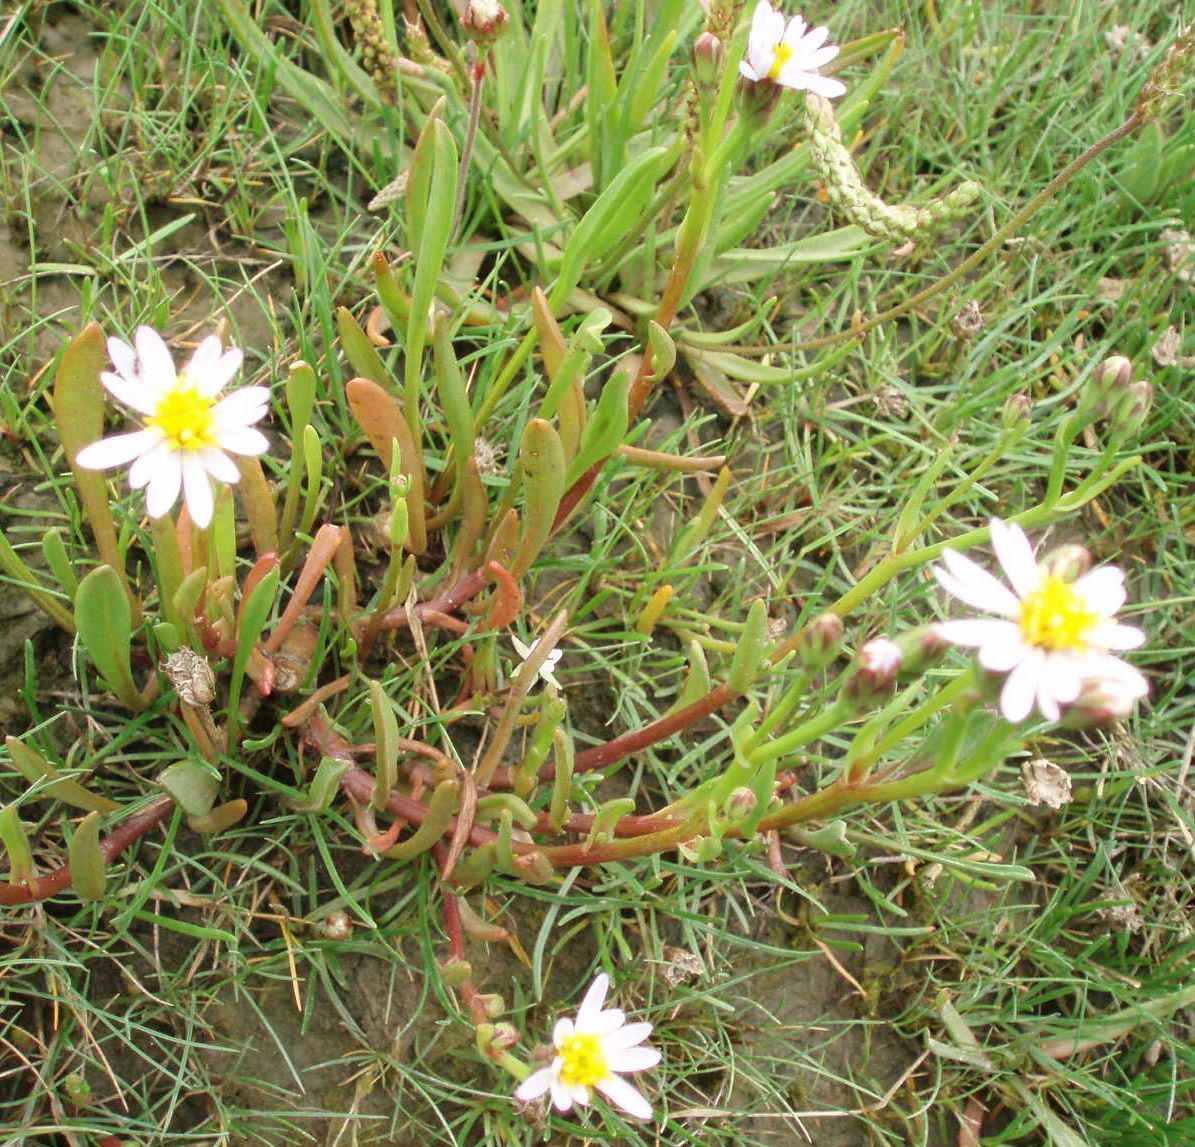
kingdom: Plantae
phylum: Tracheophyta
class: Magnoliopsida
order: Asterales
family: Asteraceae
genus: Tripolium
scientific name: Tripolium pannonicum
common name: Sea aster
